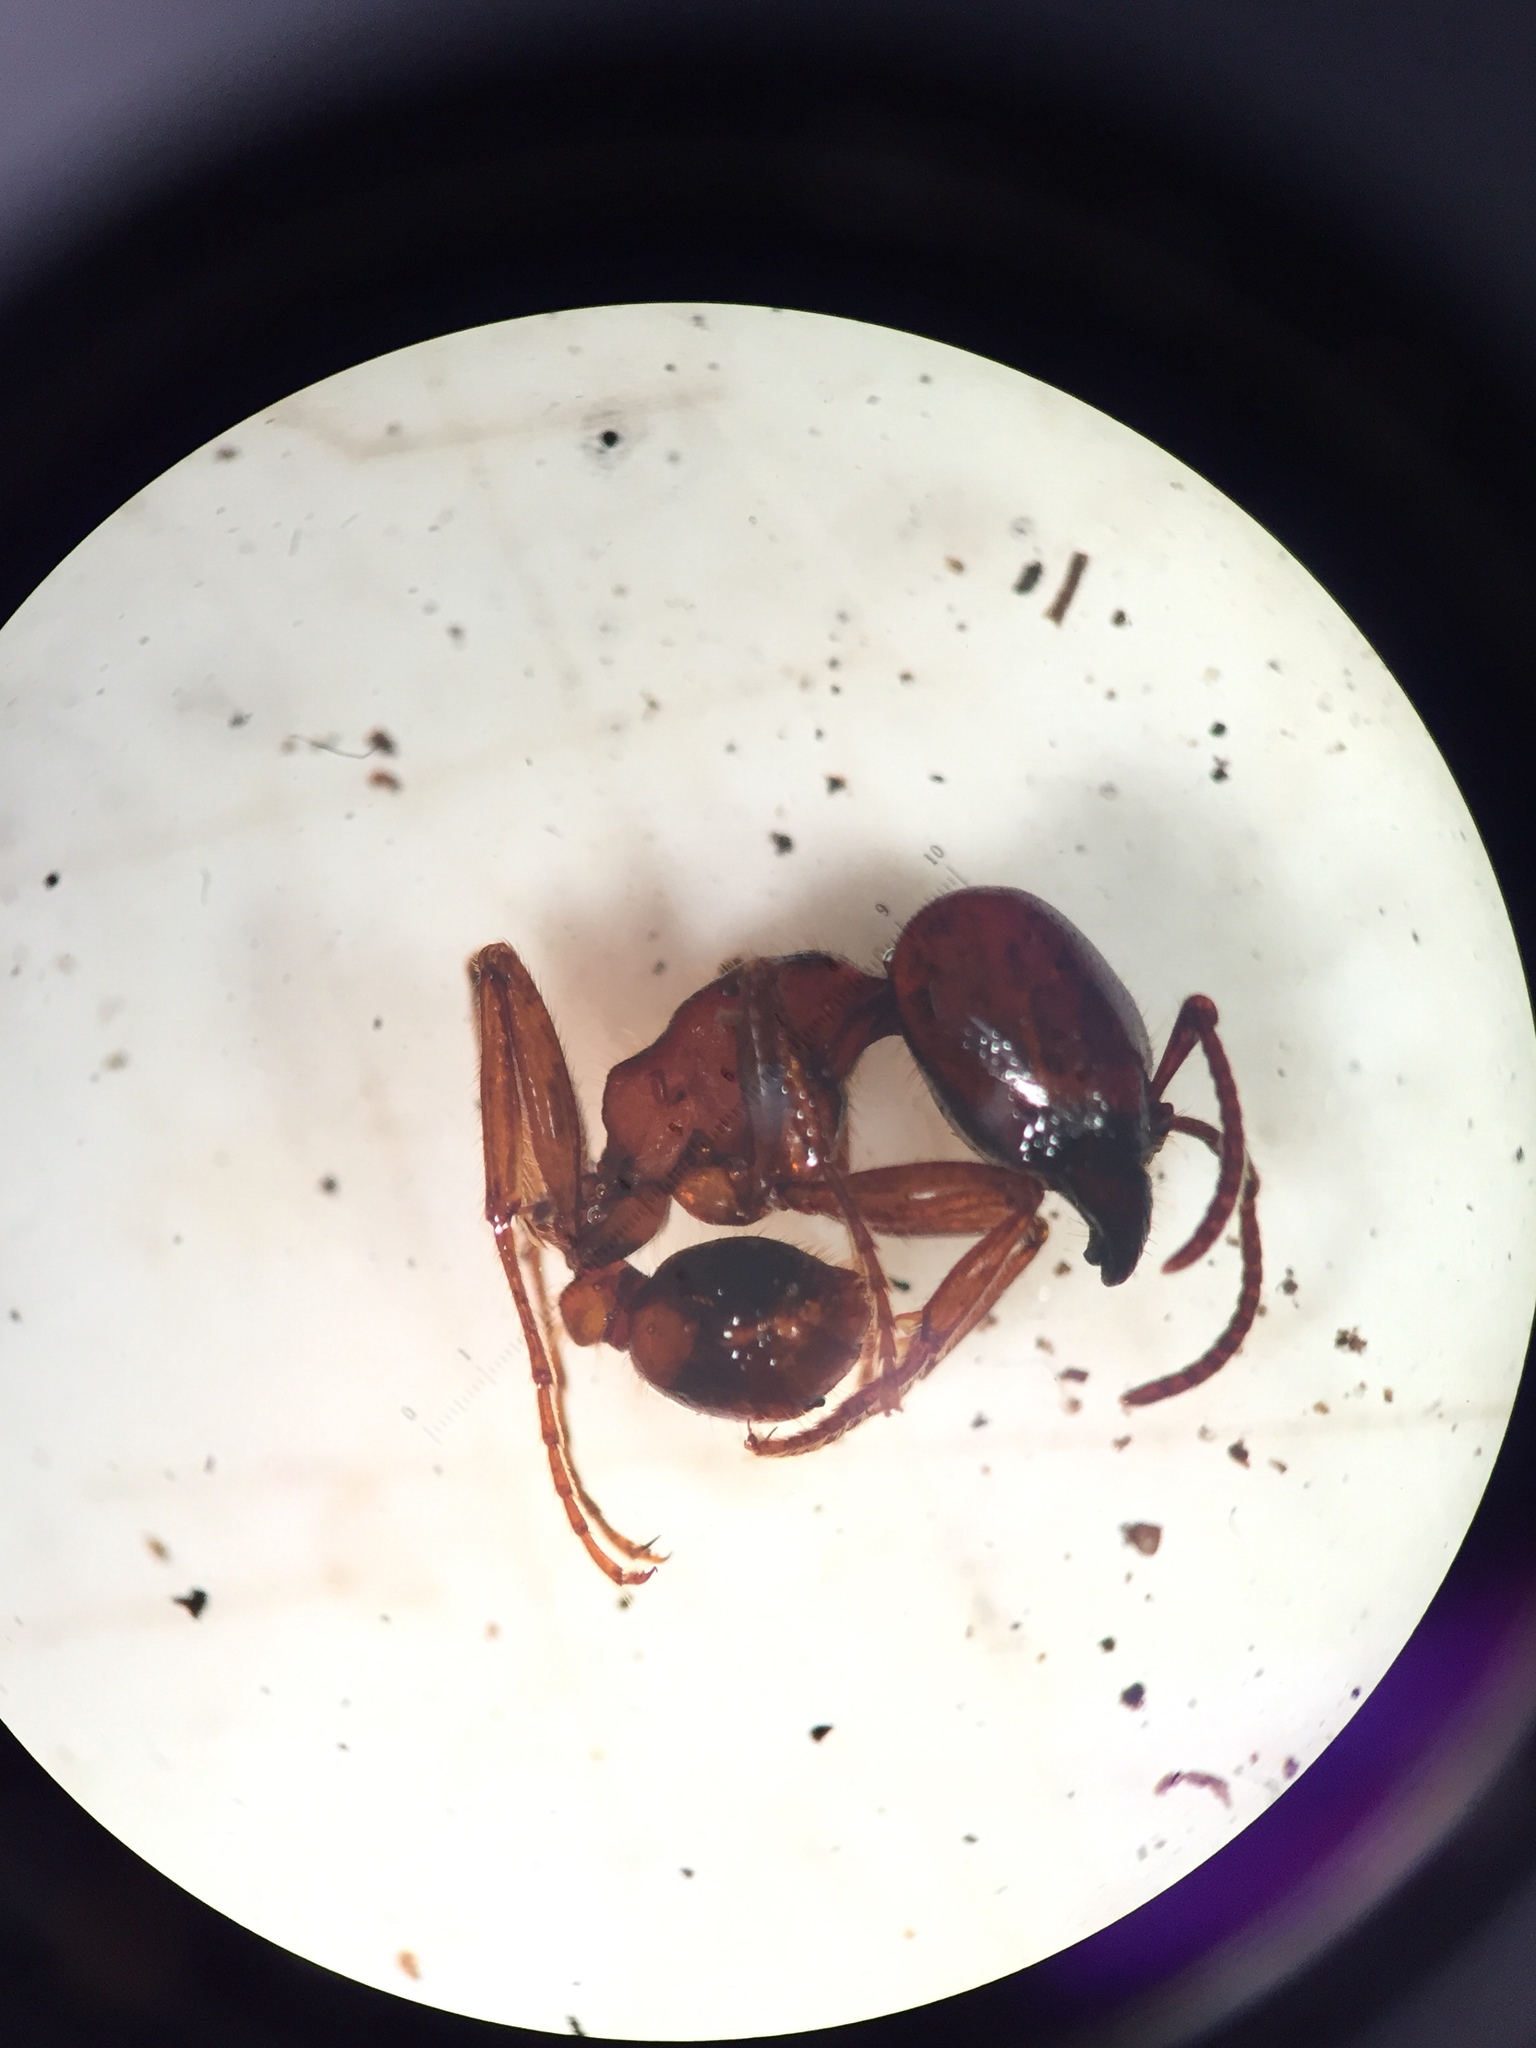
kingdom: Animalia
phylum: Arthropoda
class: Insecta
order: Hymenoptera
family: Formicidae
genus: Labidus
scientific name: Labidus coecus
